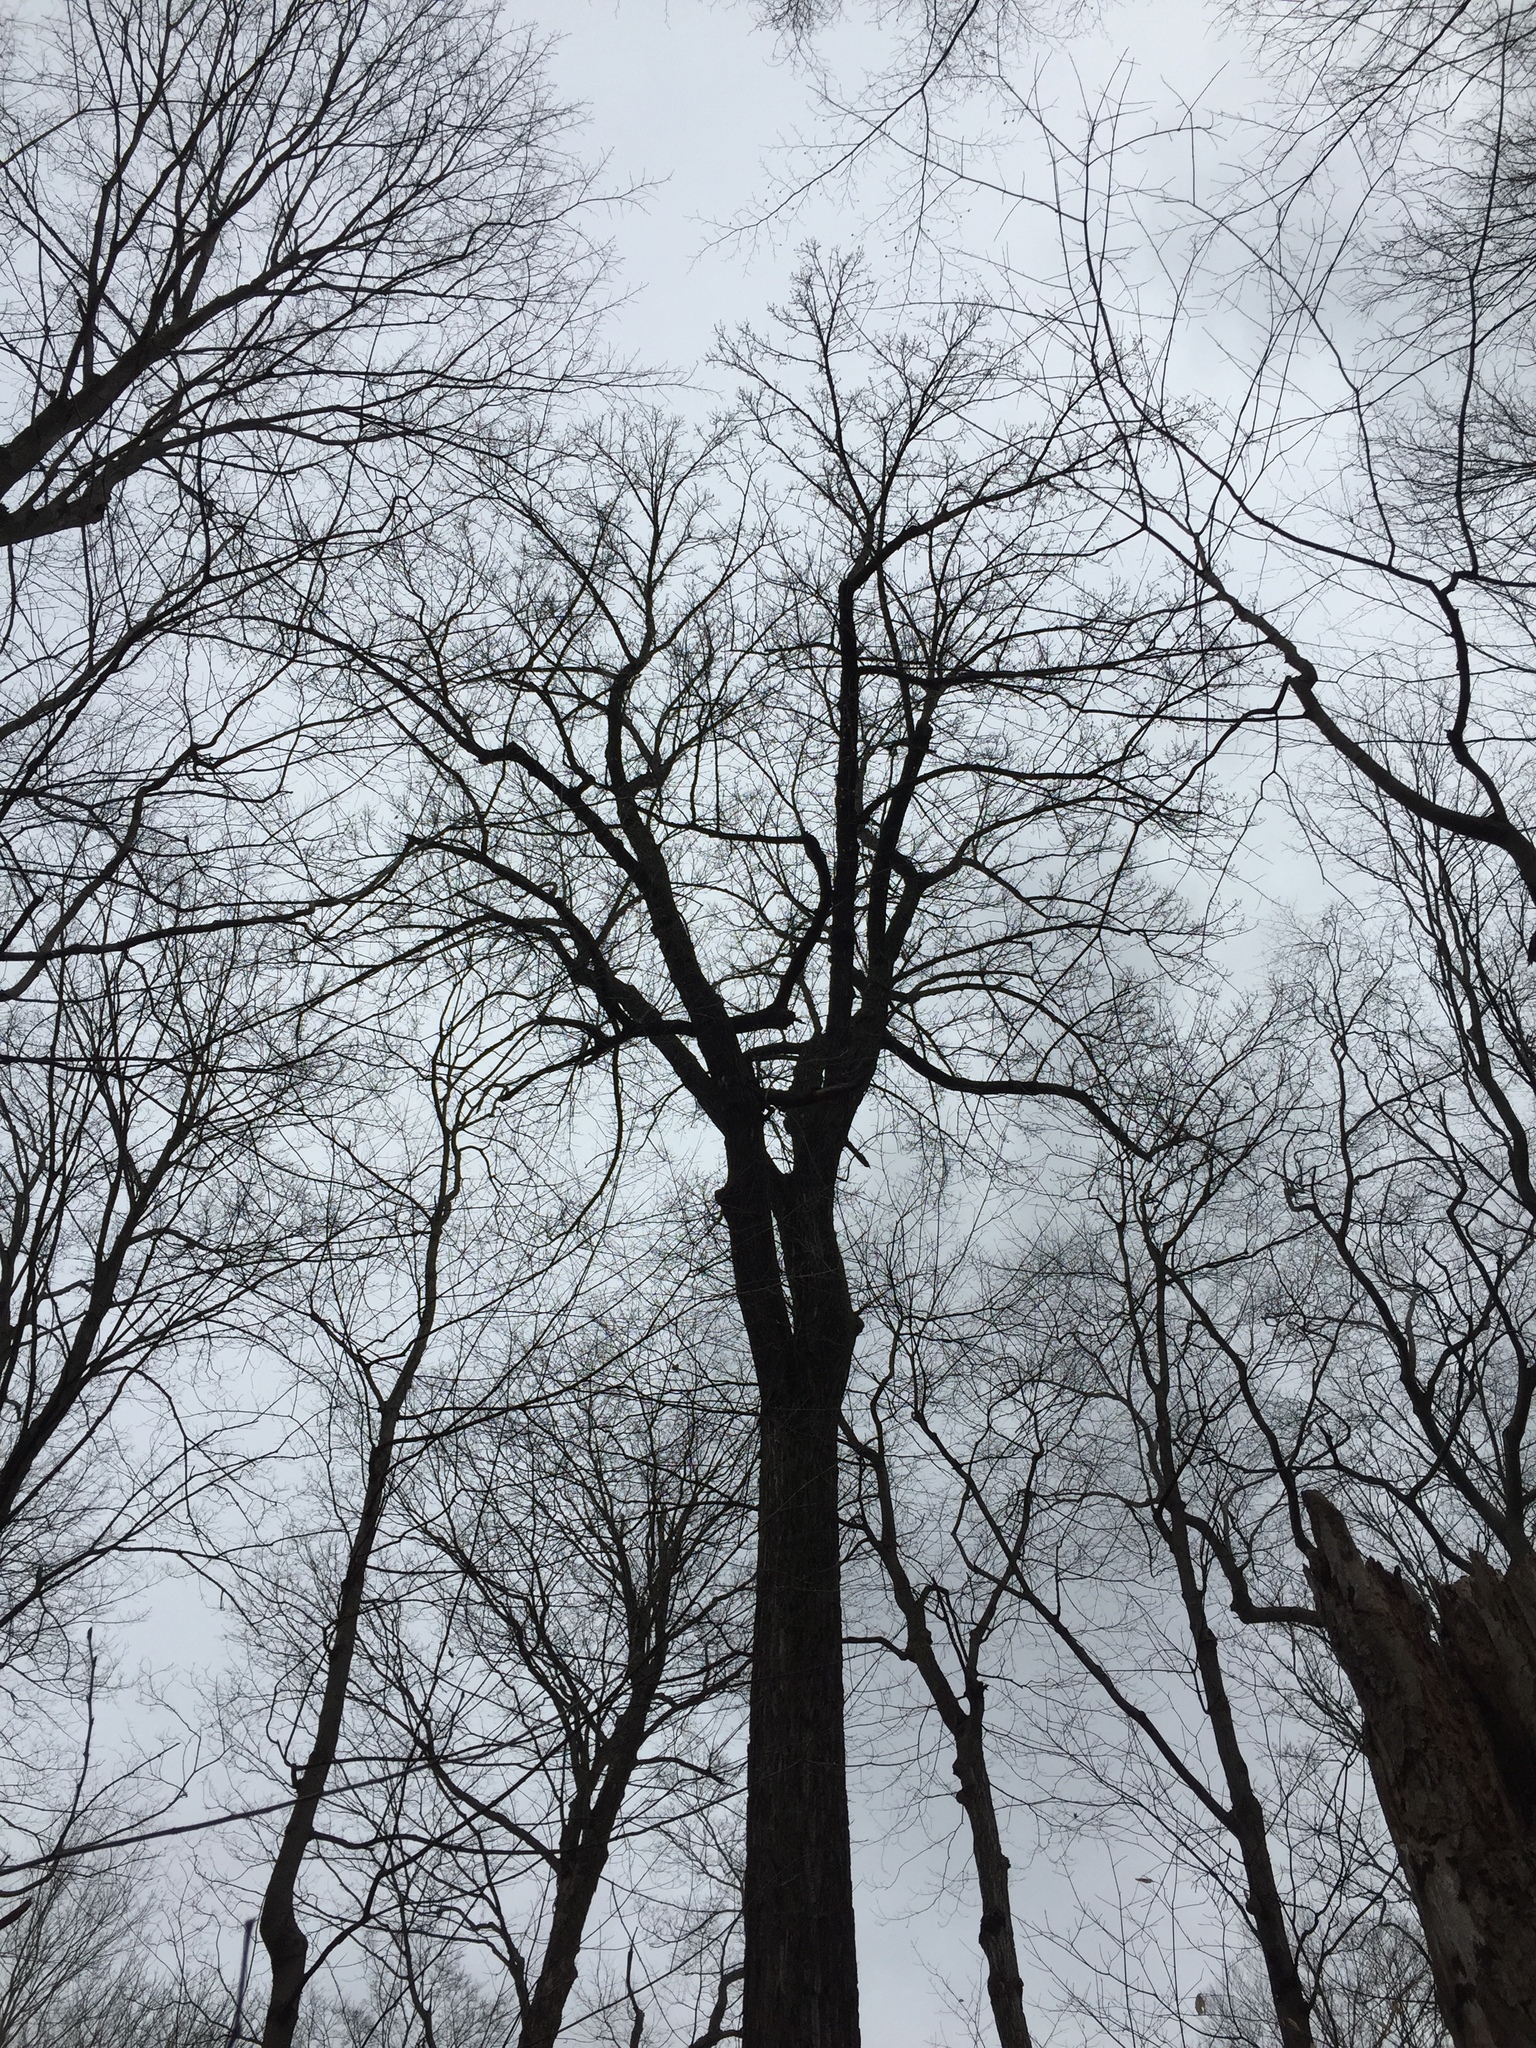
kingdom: Plantae
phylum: Tracheophyta
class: Magnoliopsida
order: Magnoliales
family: Magnoliaceae
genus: Liriodendron
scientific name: Liriodendron tulipifera
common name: Tulip tree
